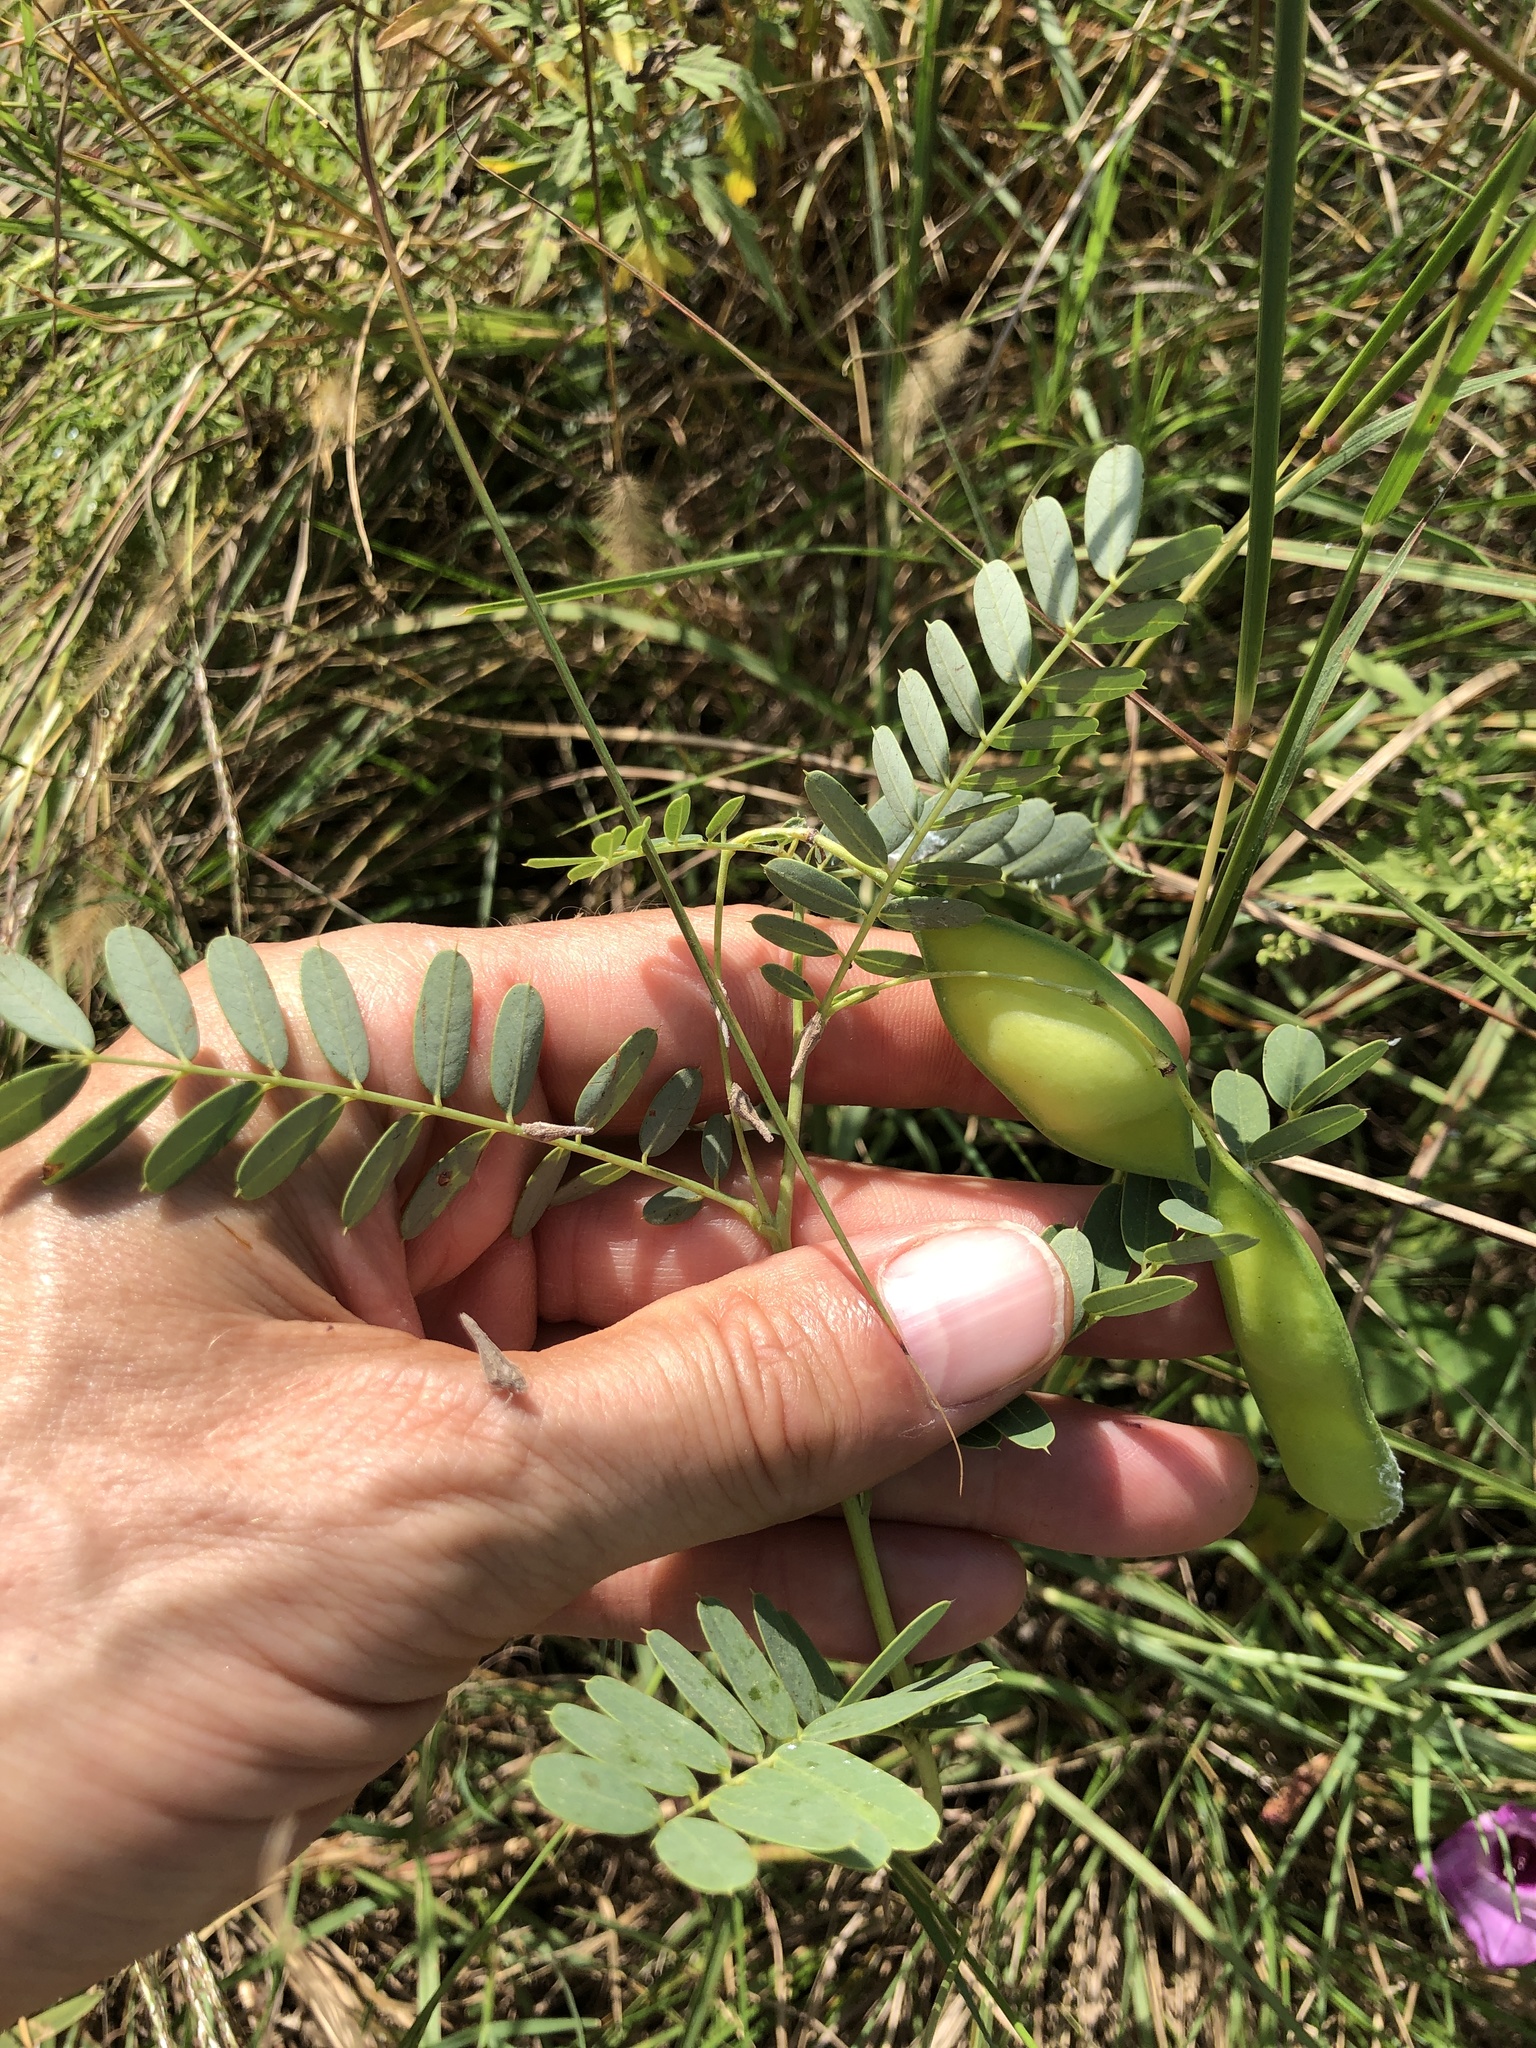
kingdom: Plantae
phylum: Tracheophyta
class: Magnoliopsida
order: Fabales
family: Fabaceae
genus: Sesbania
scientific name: Sesbania vesicaria
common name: Bagpod
